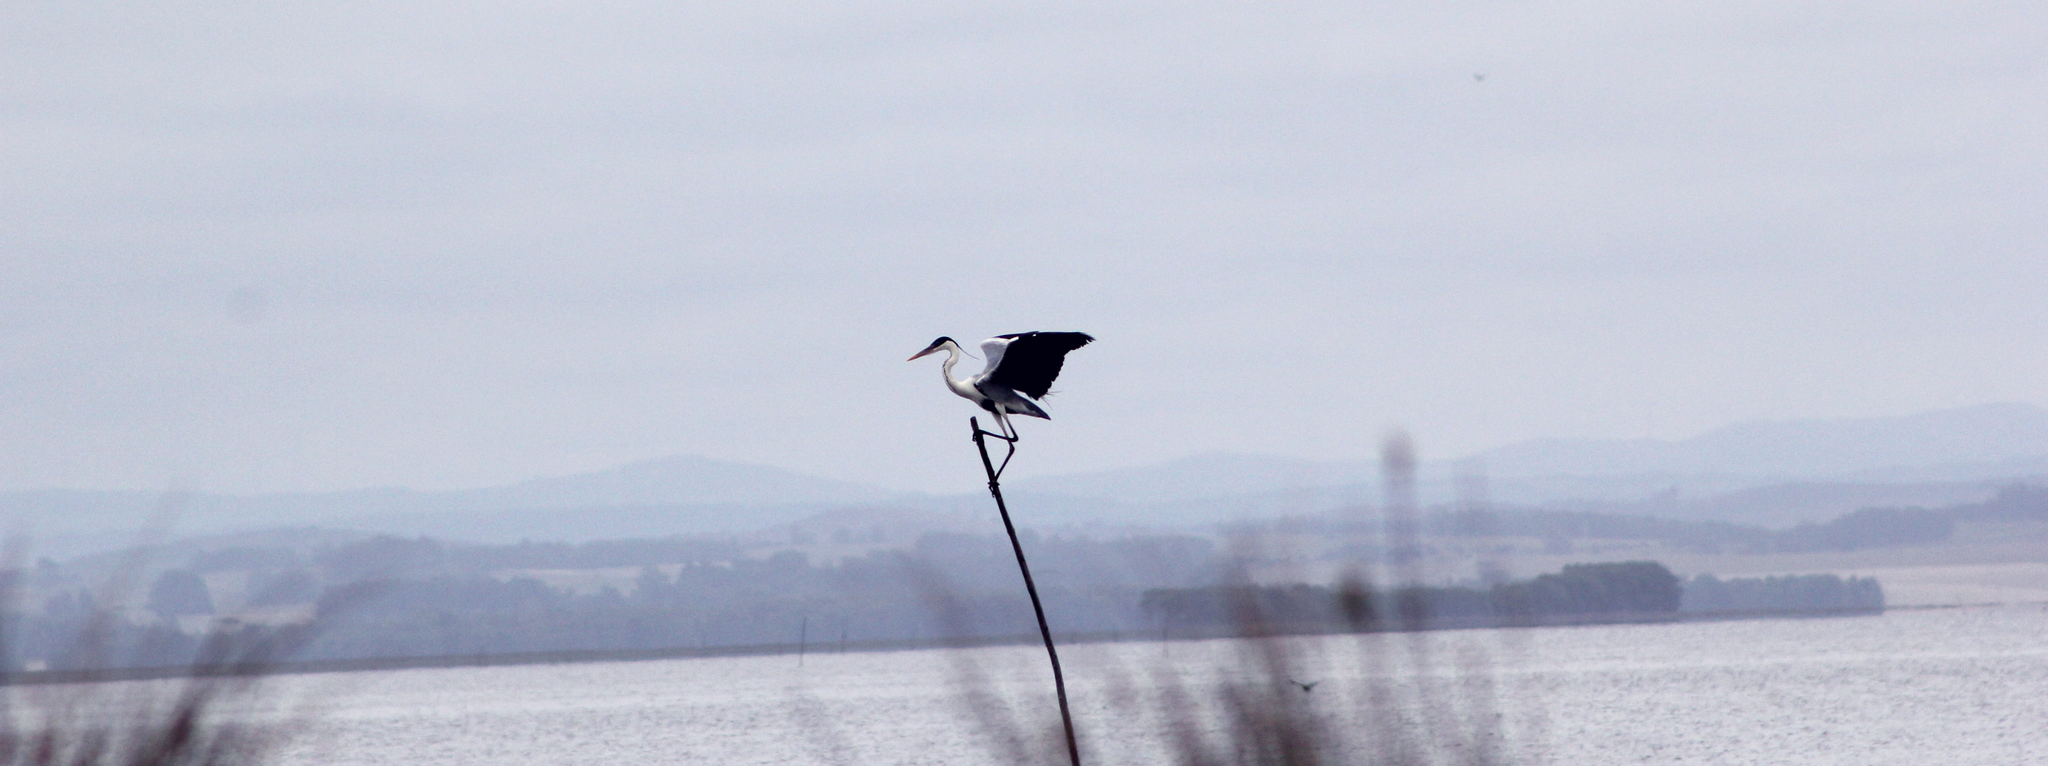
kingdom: Animalia
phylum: Chordata
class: Aves
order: Pelecaniformes
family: Ardeidae
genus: Ardea
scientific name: Ardea cocoi
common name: Cocoi heron
